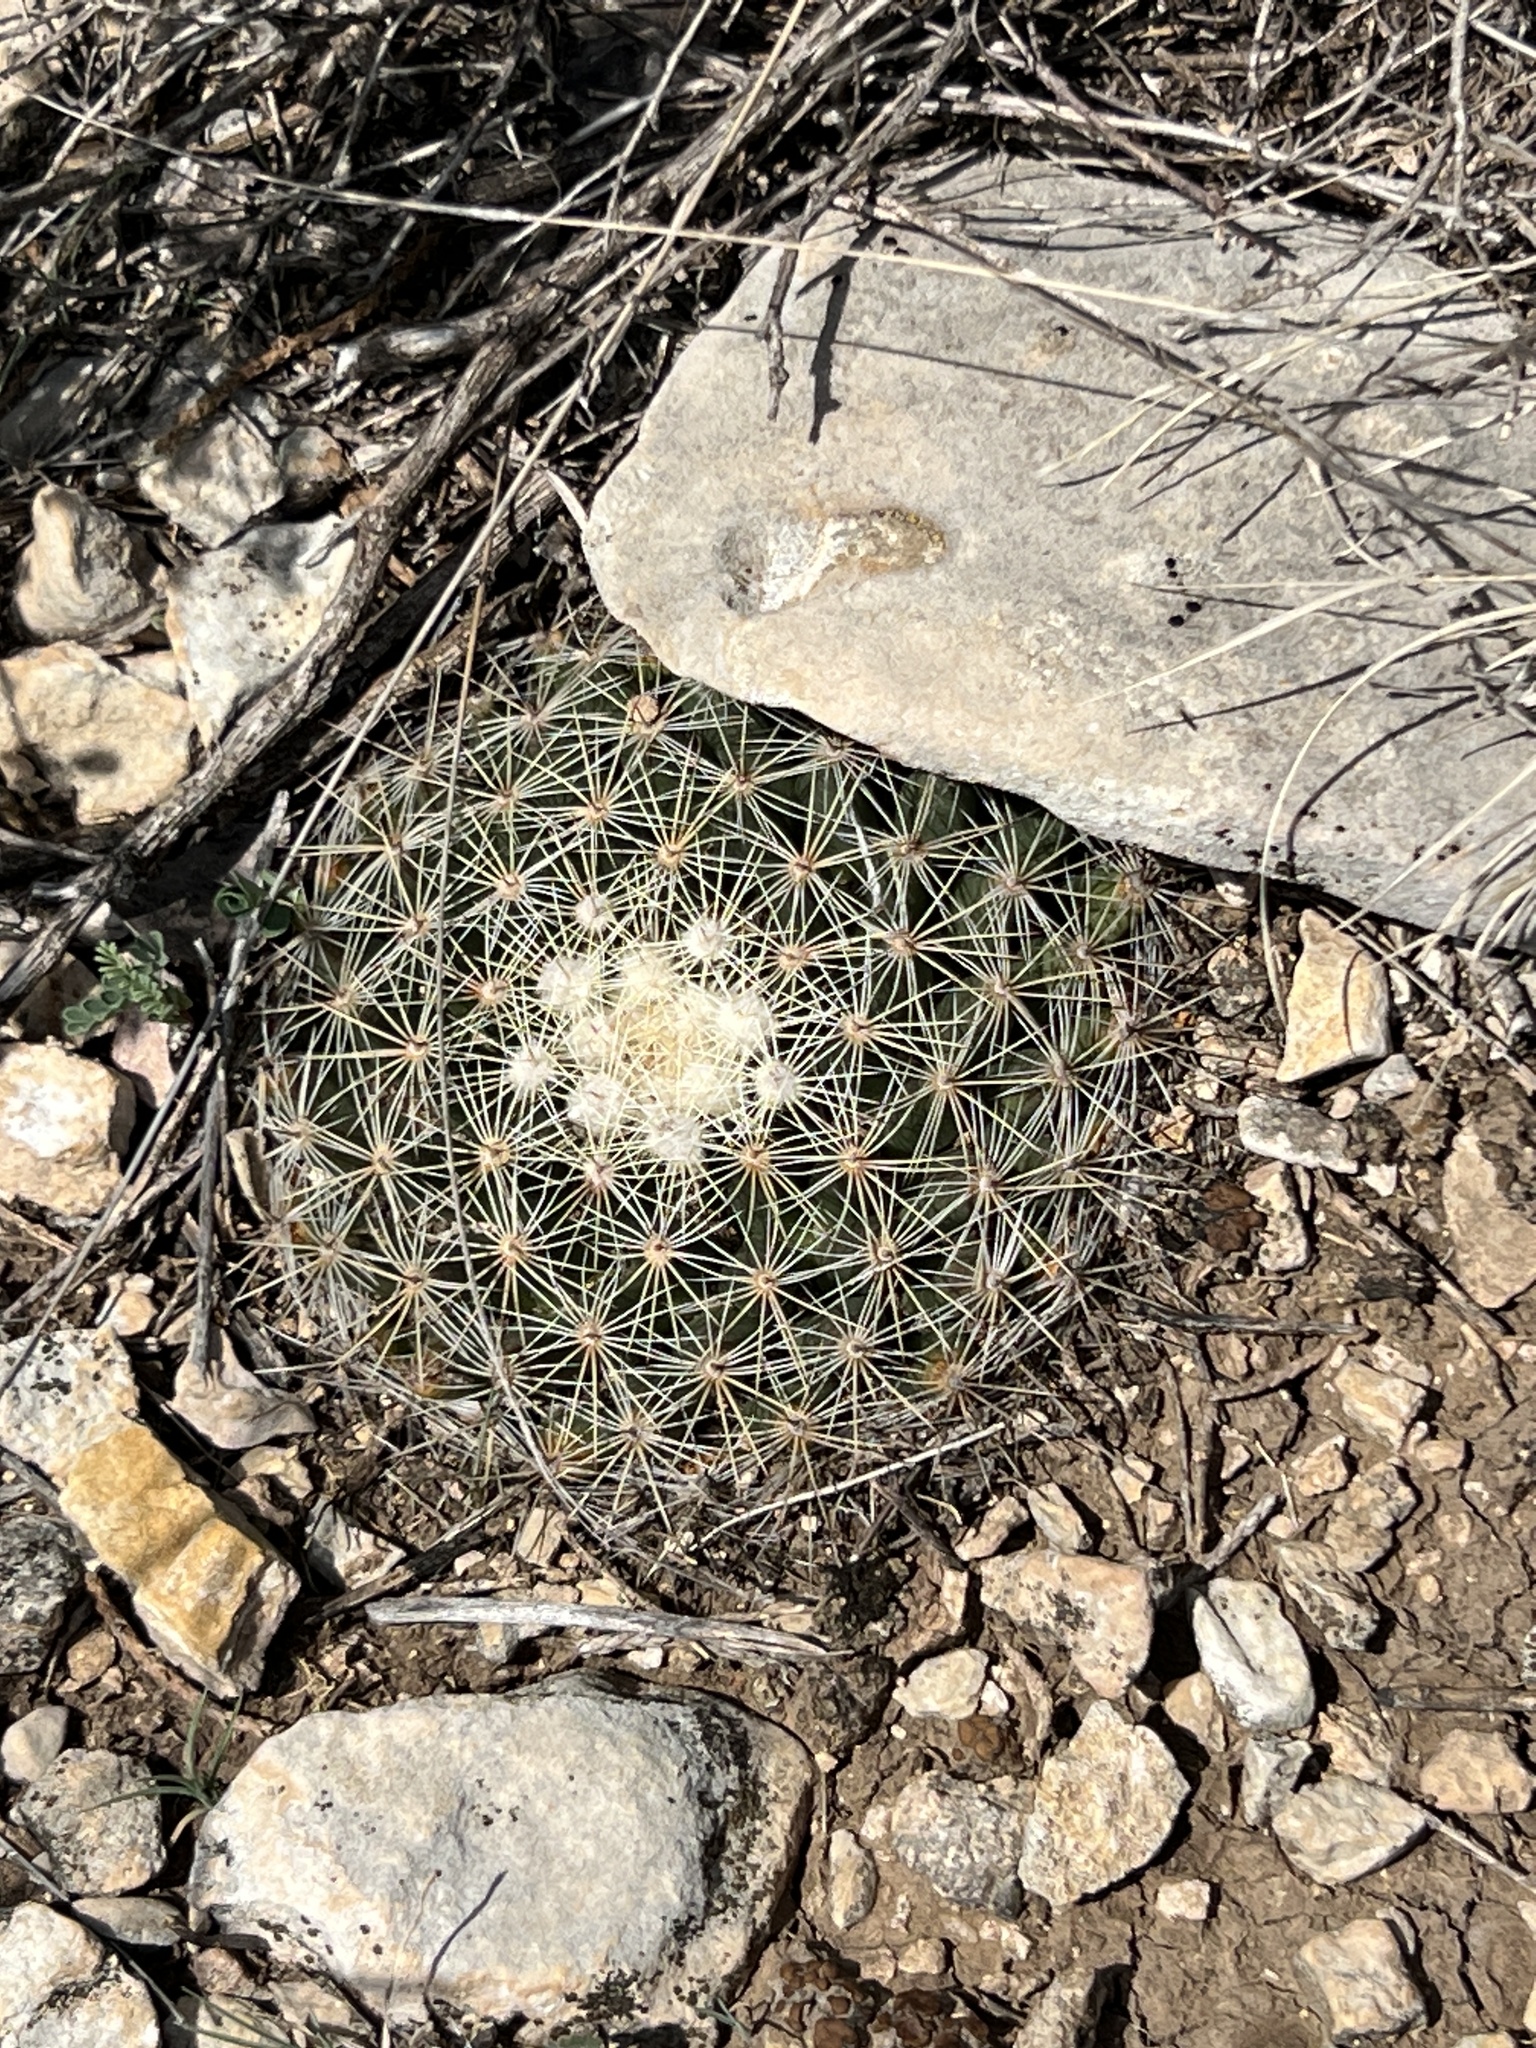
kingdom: Plantae
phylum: Tracheophyta
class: Magnoliopsida
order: Caryophyllales
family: Cactaceae
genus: Mammillaria
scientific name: Mammillaria heyderi
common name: Little nipple cactus
